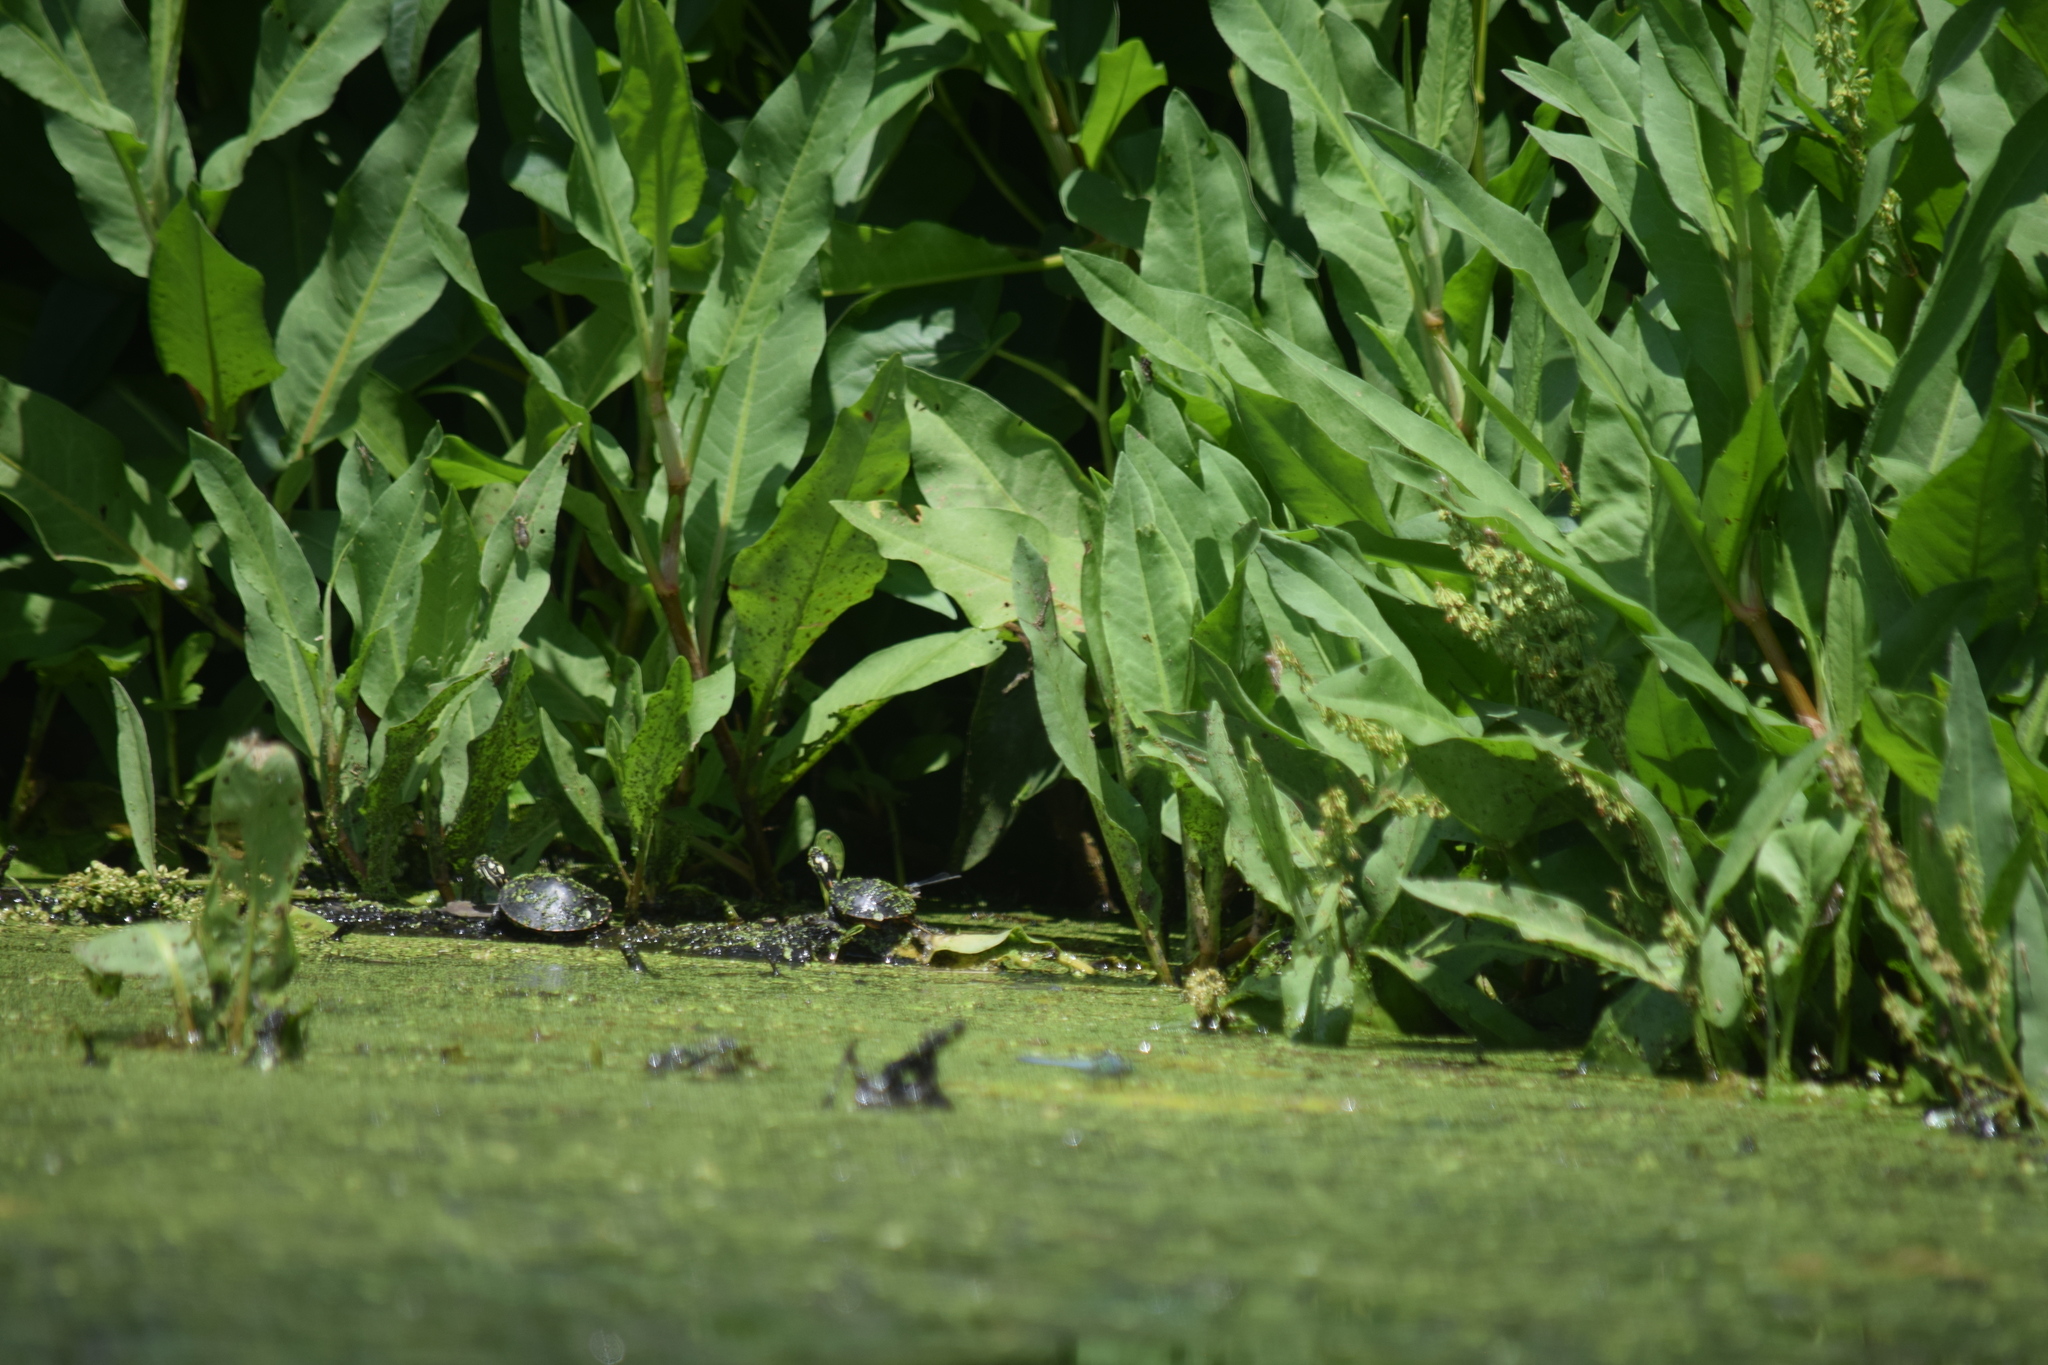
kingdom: Animalia
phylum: Chordata
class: Testudines
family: Emydidae
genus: Chrysemys
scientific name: Chrysemys picta
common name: Painted turtle
